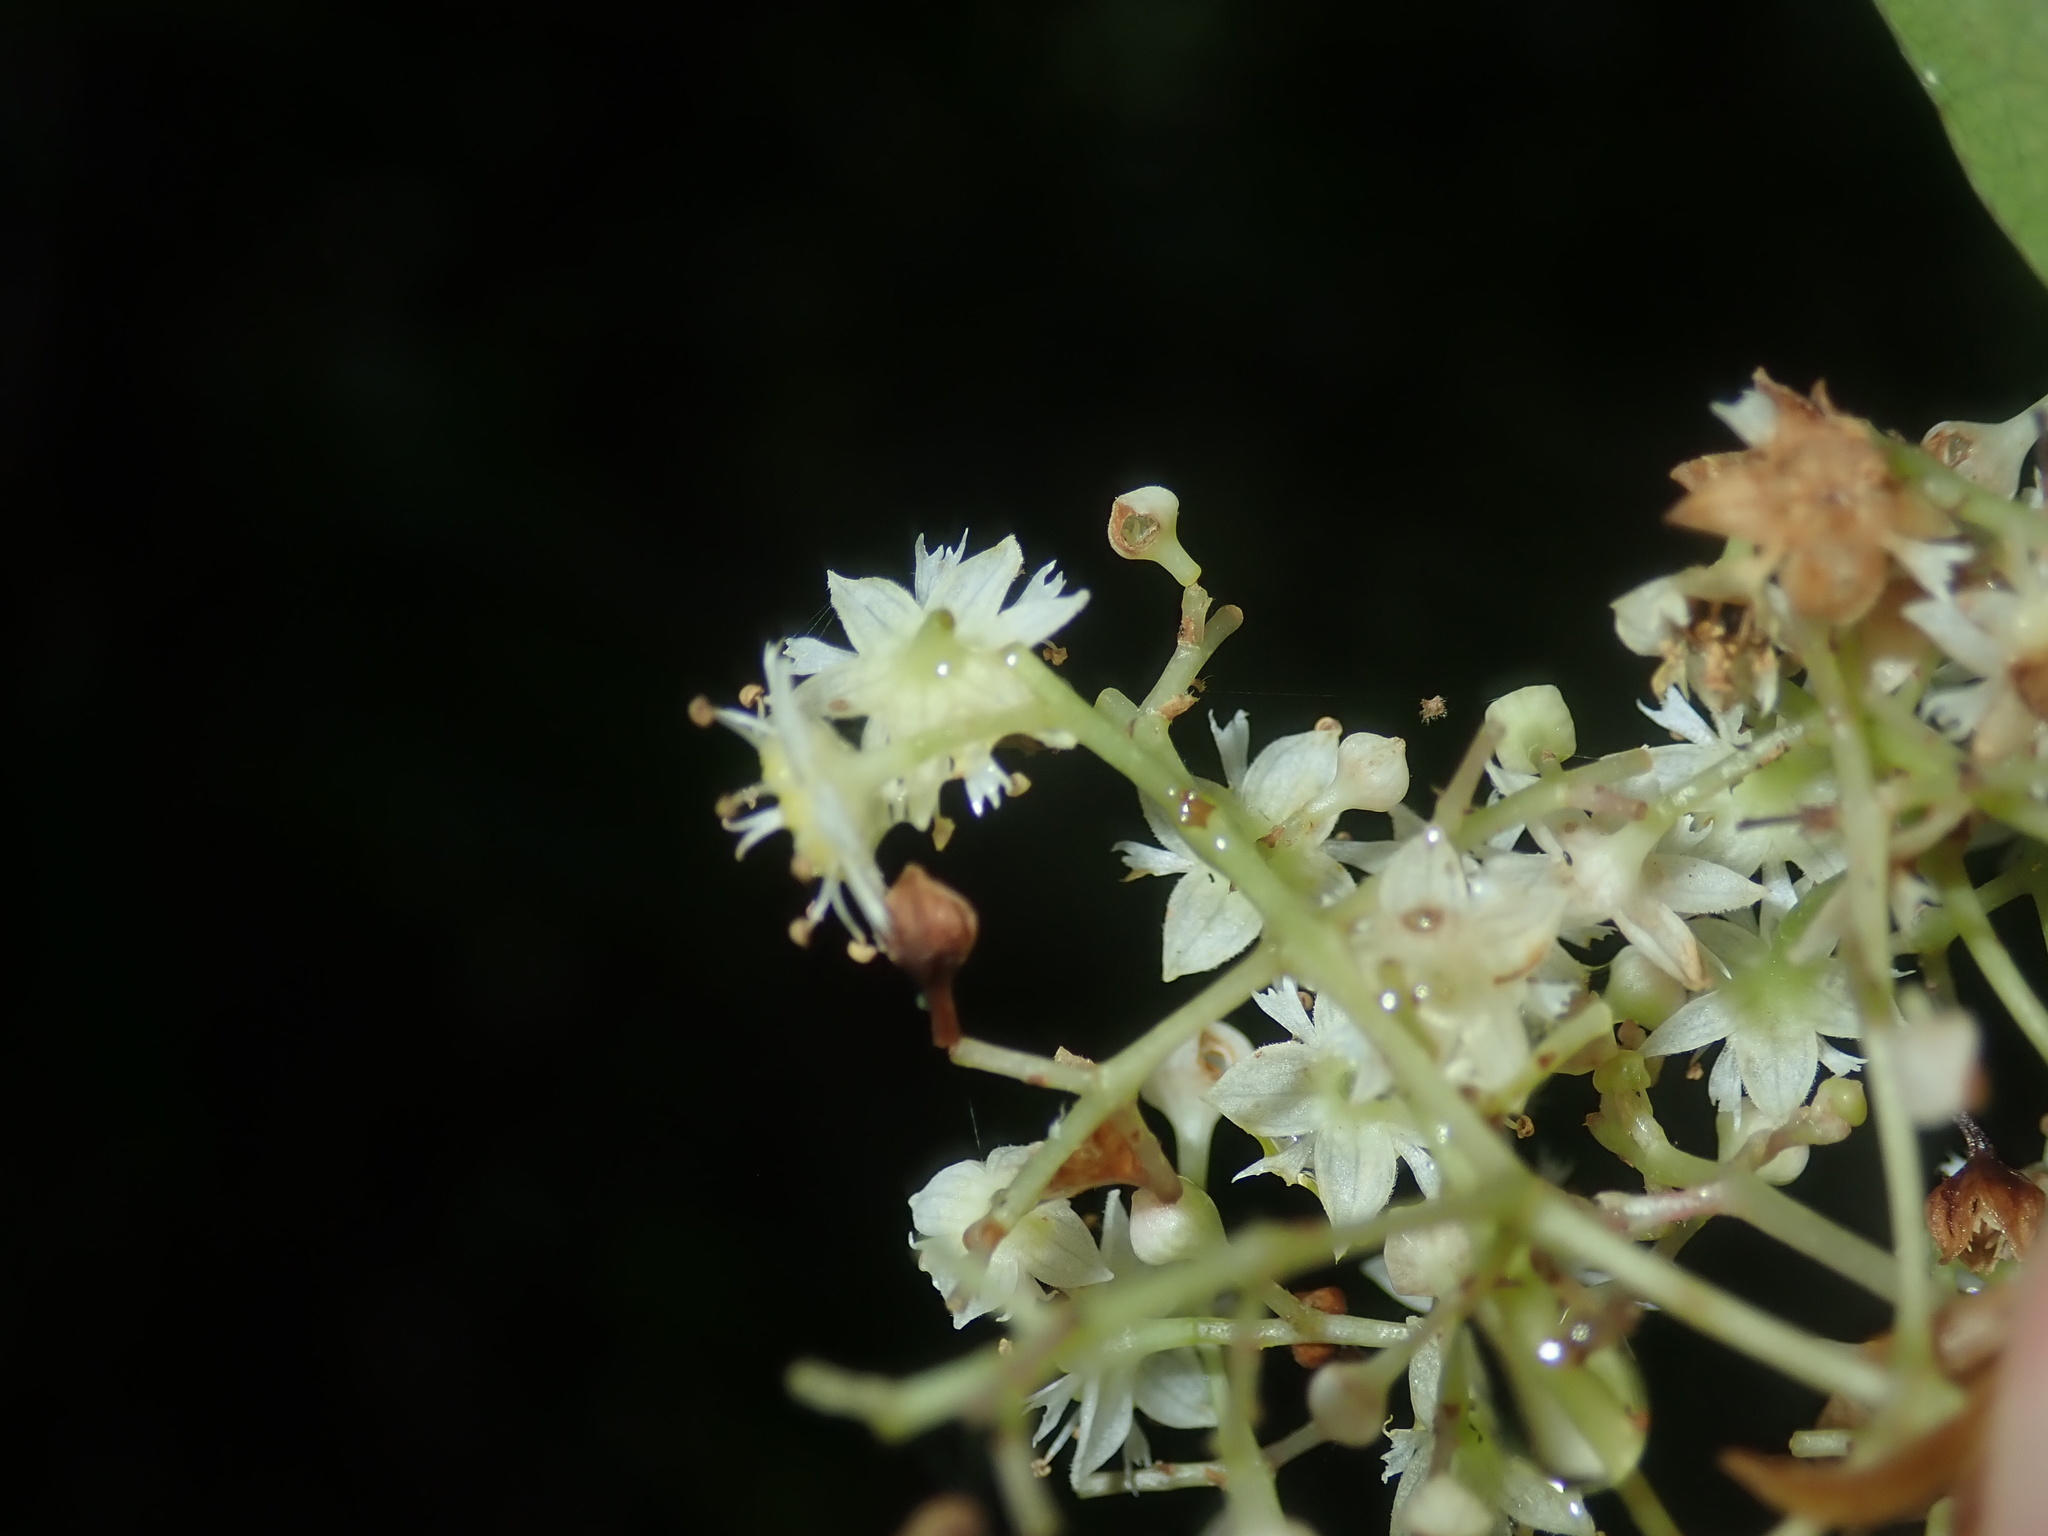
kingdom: Plantae
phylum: Tracheophyta
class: Magnoliopsida
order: Oxalidales
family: Cunoniaceae
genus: Schizomeria
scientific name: Schizomeria ovata
